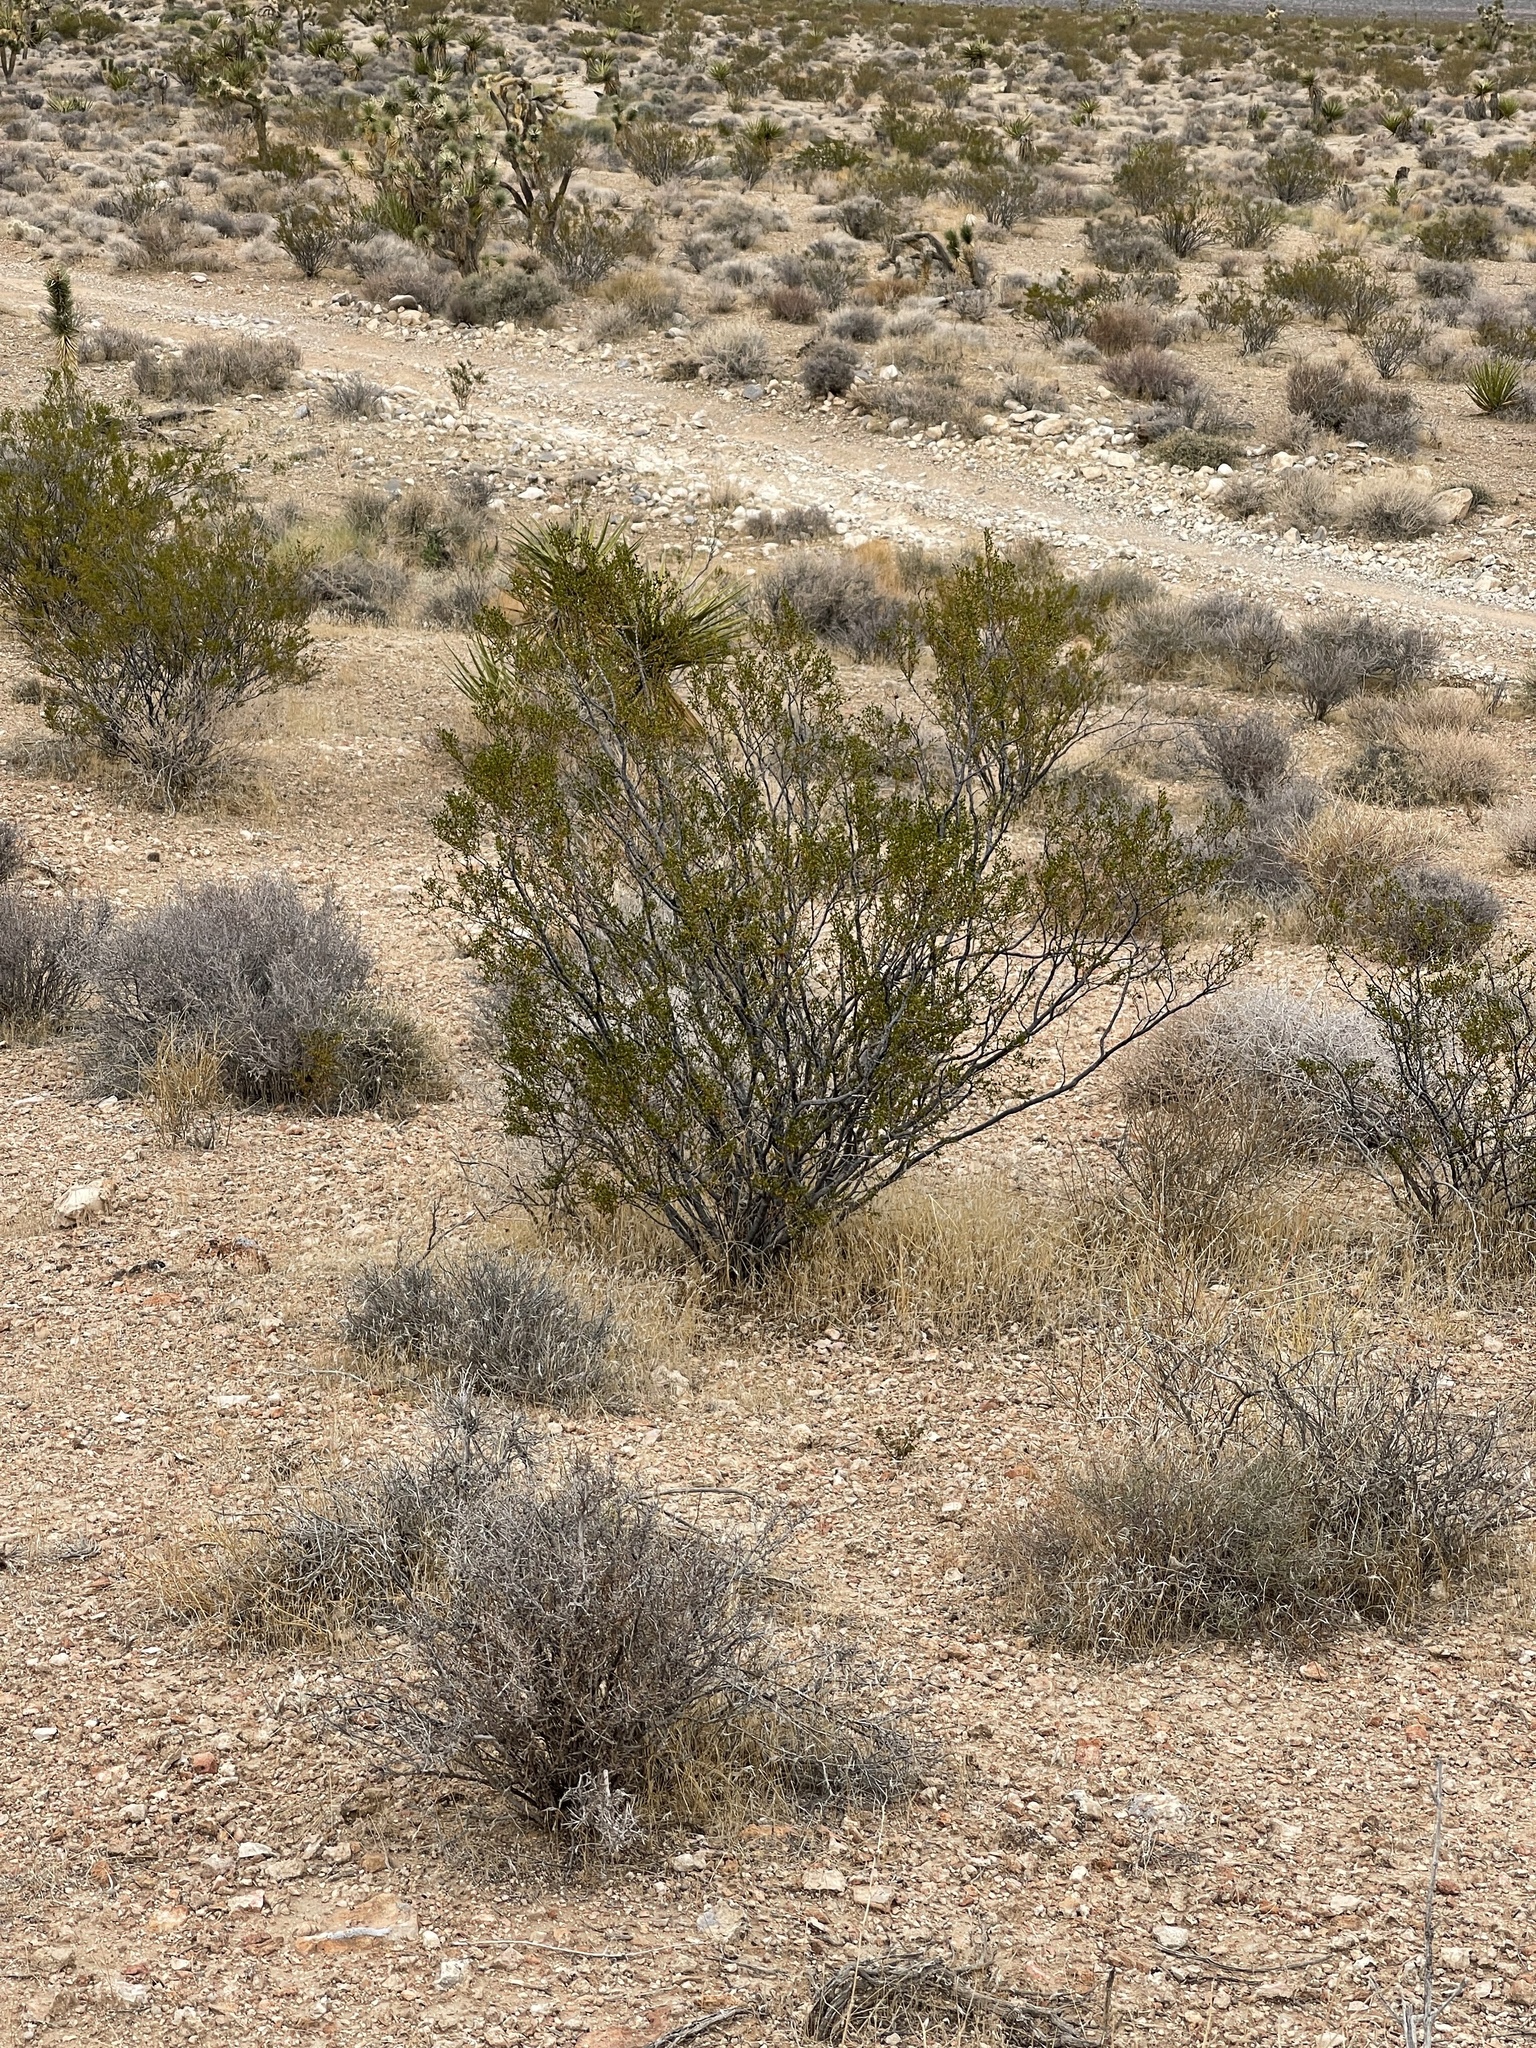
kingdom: Plantae
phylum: Tracheophyta
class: Magnoliopsida
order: Zygophyllales
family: Zygophyllaceae
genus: Larrea
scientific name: Larrea tridentata
